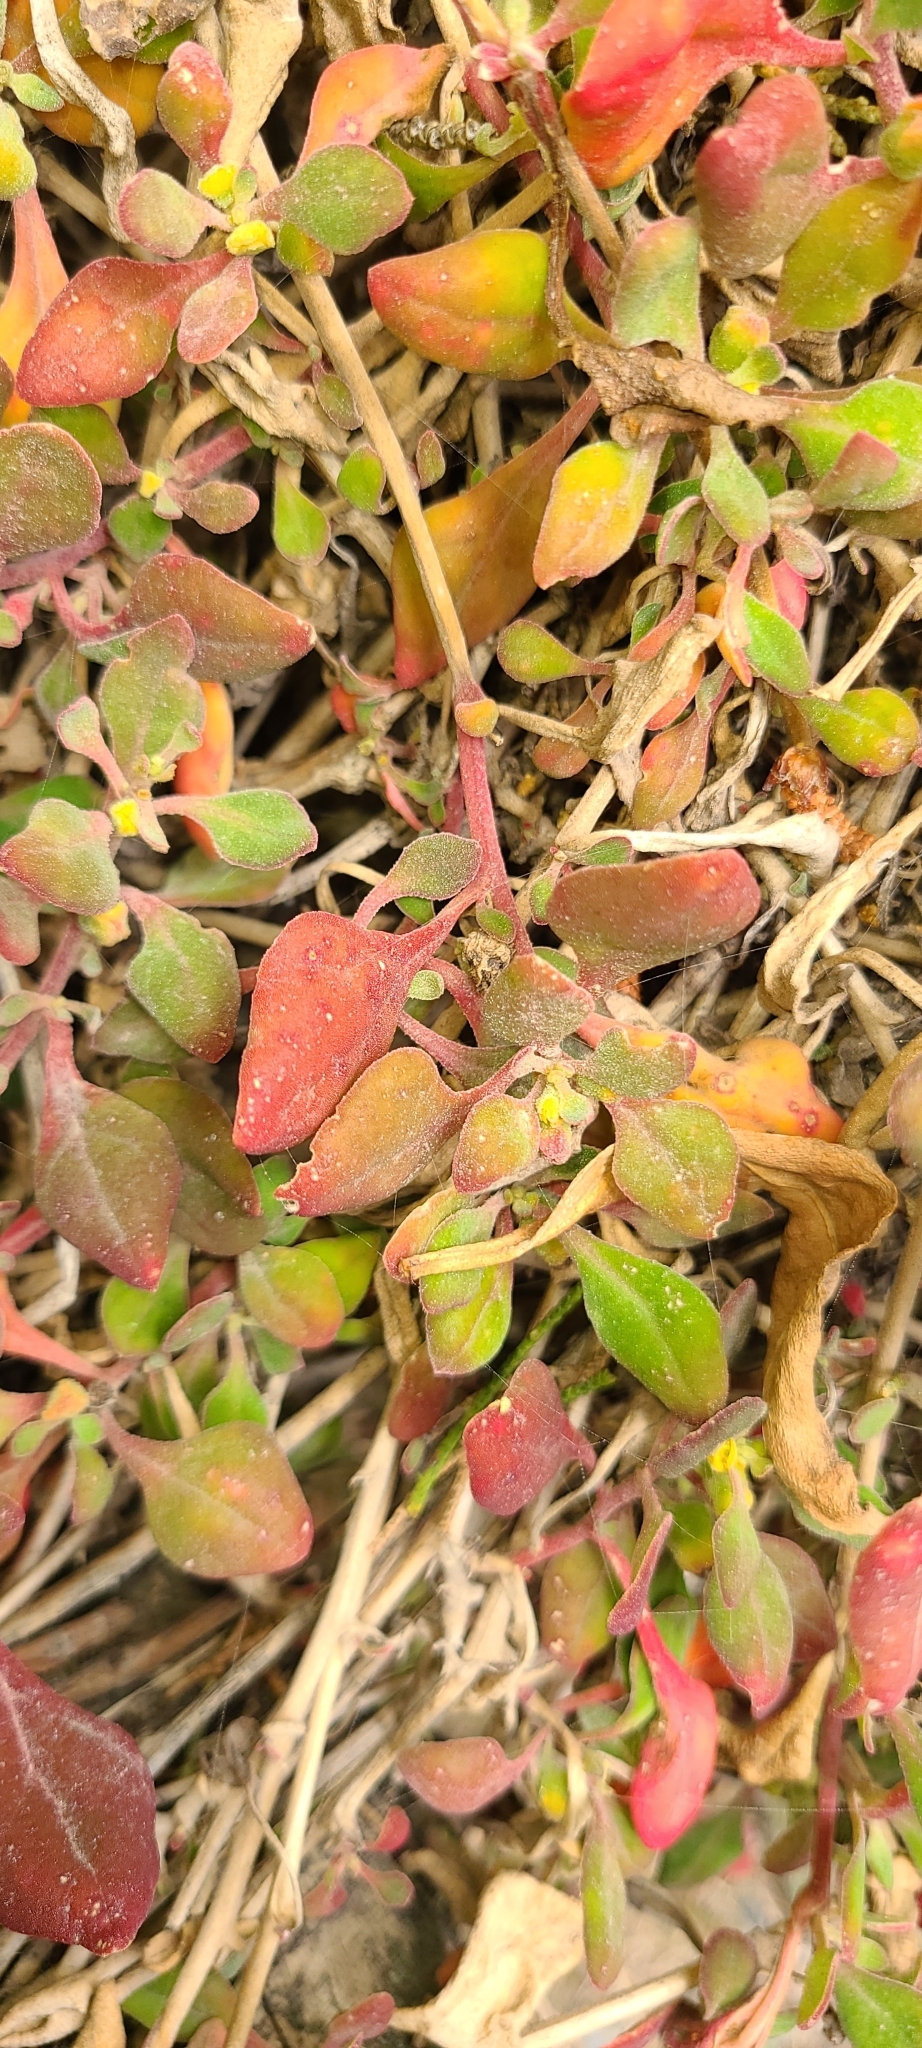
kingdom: Plantae
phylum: Tracheophyta
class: Magnoliopsida
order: Caryophyllales
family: Aizoaceae
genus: Tetragonia
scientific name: Tetragonia implexicoma
